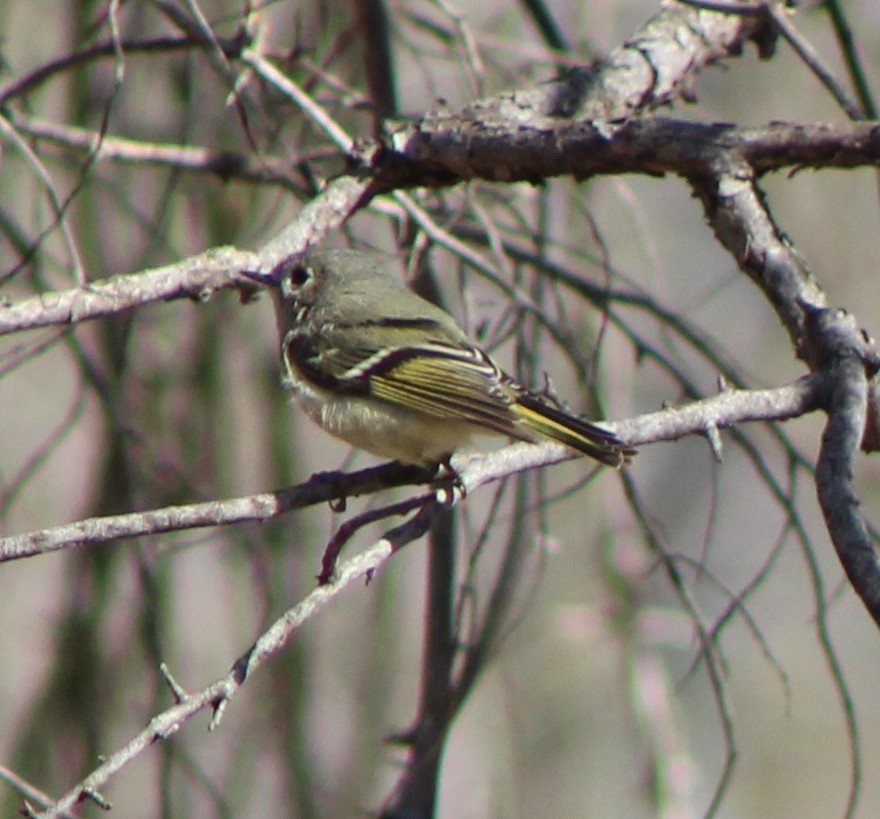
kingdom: Animalia
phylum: Chordata
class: Aves
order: Passeriformes
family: Regulidae
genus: Regulus
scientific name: Regulus calendula
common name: Ruby-crowned kinglet
